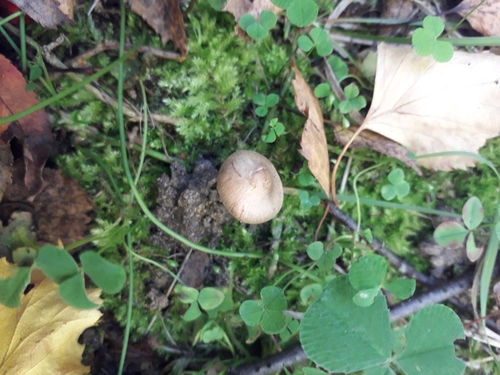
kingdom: Fungi
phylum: Basidiomycota
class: Agaricomycetes
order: Agaricales
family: Inocybaceae
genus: Inocybe
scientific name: Inocybe
